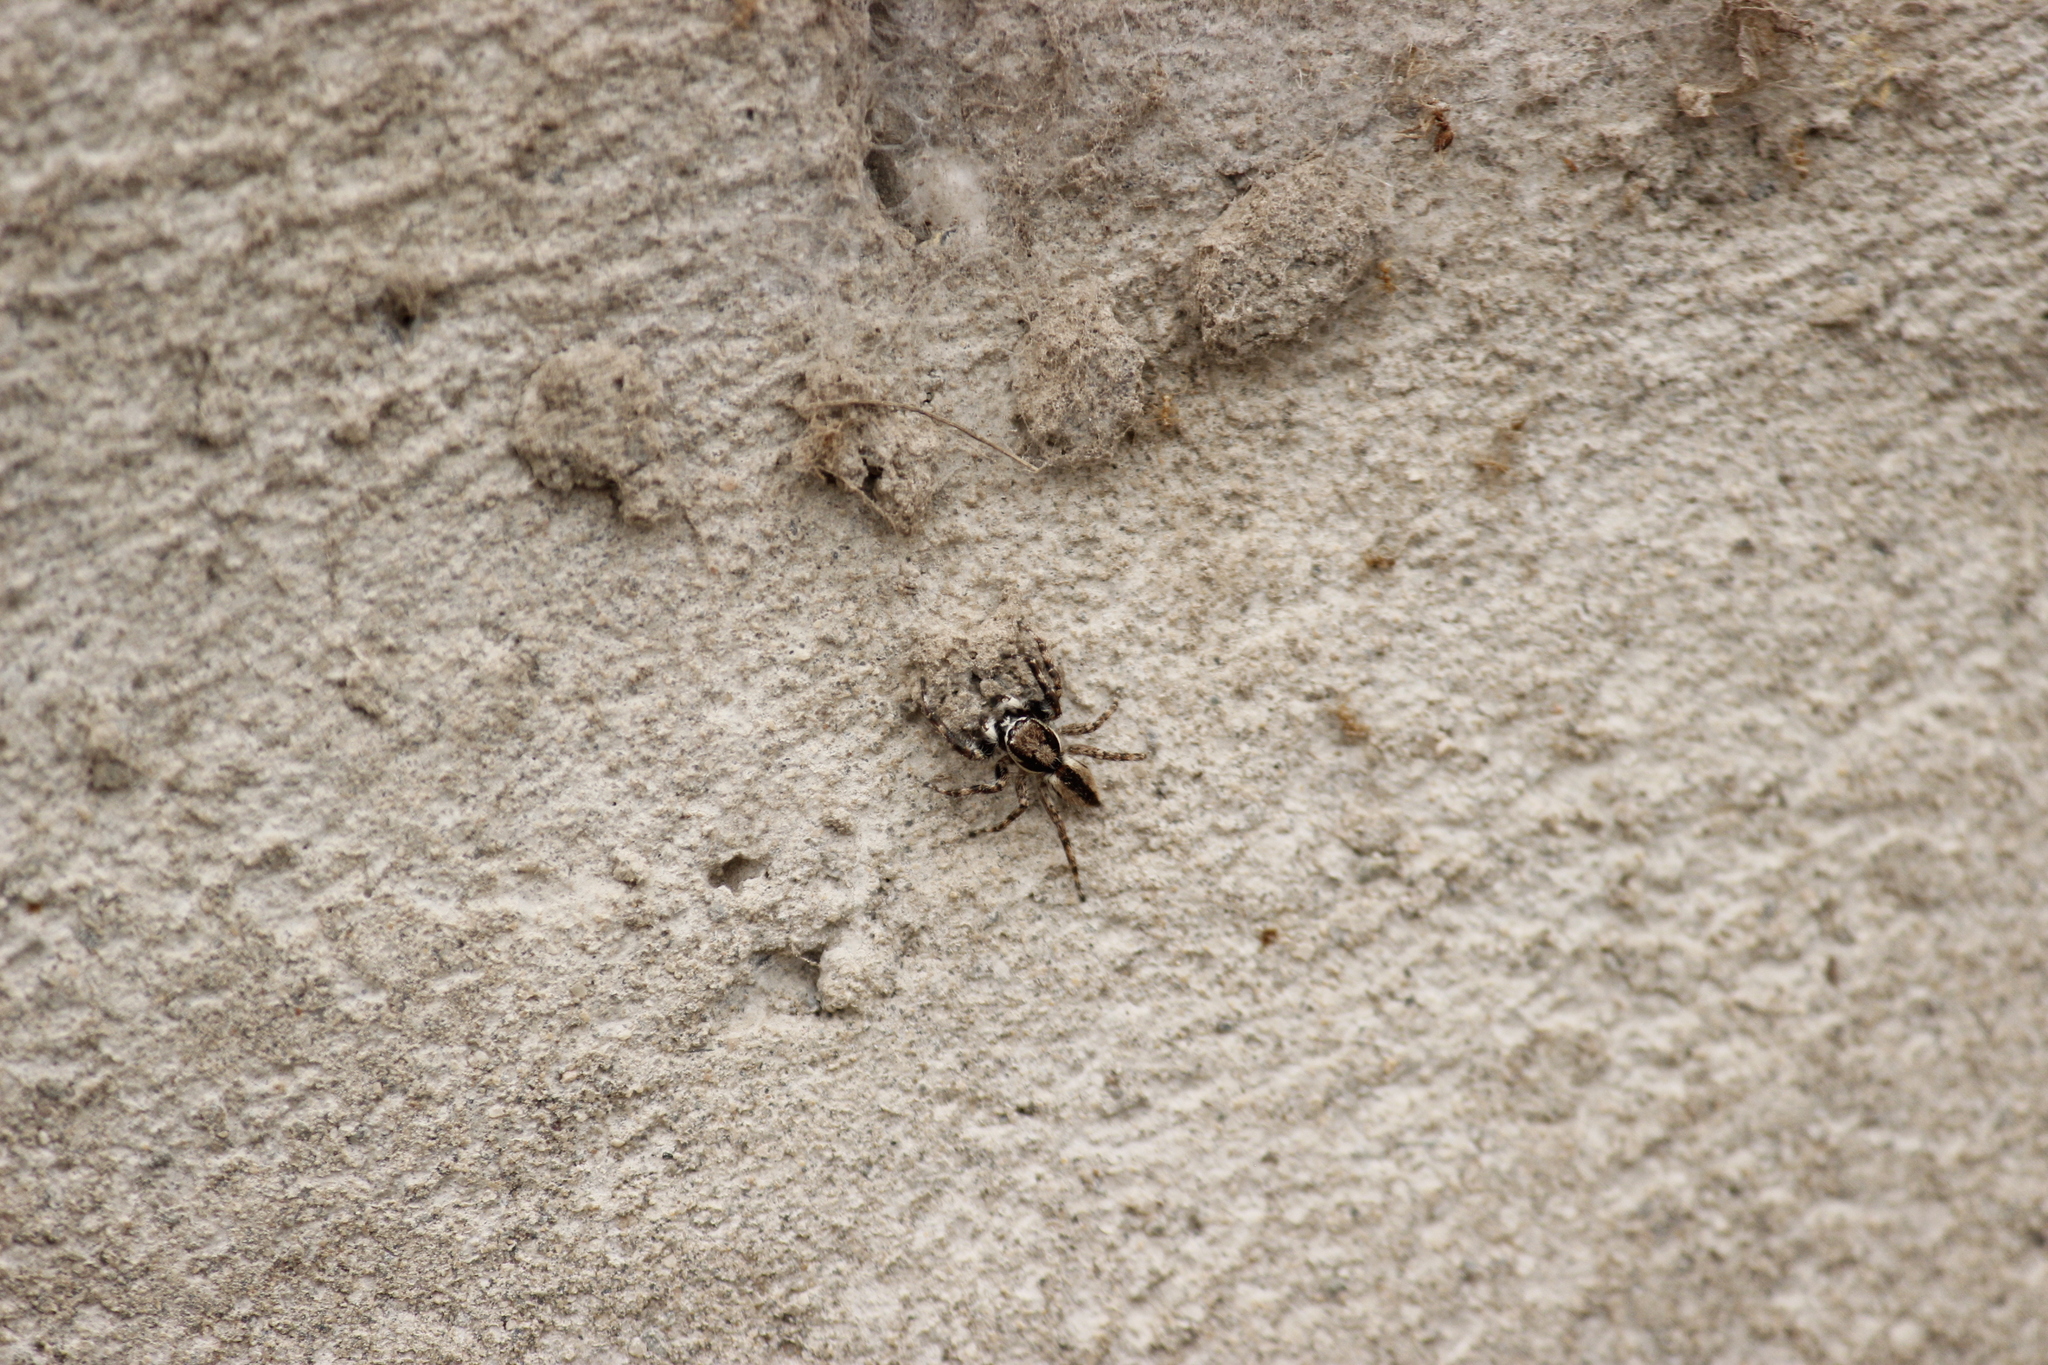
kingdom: Animalia
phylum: Arthropoda
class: Arachnida
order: Araneae
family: Salticidae
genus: Menemerus
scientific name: Menemerus bivittatus
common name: Gray wall jumper
